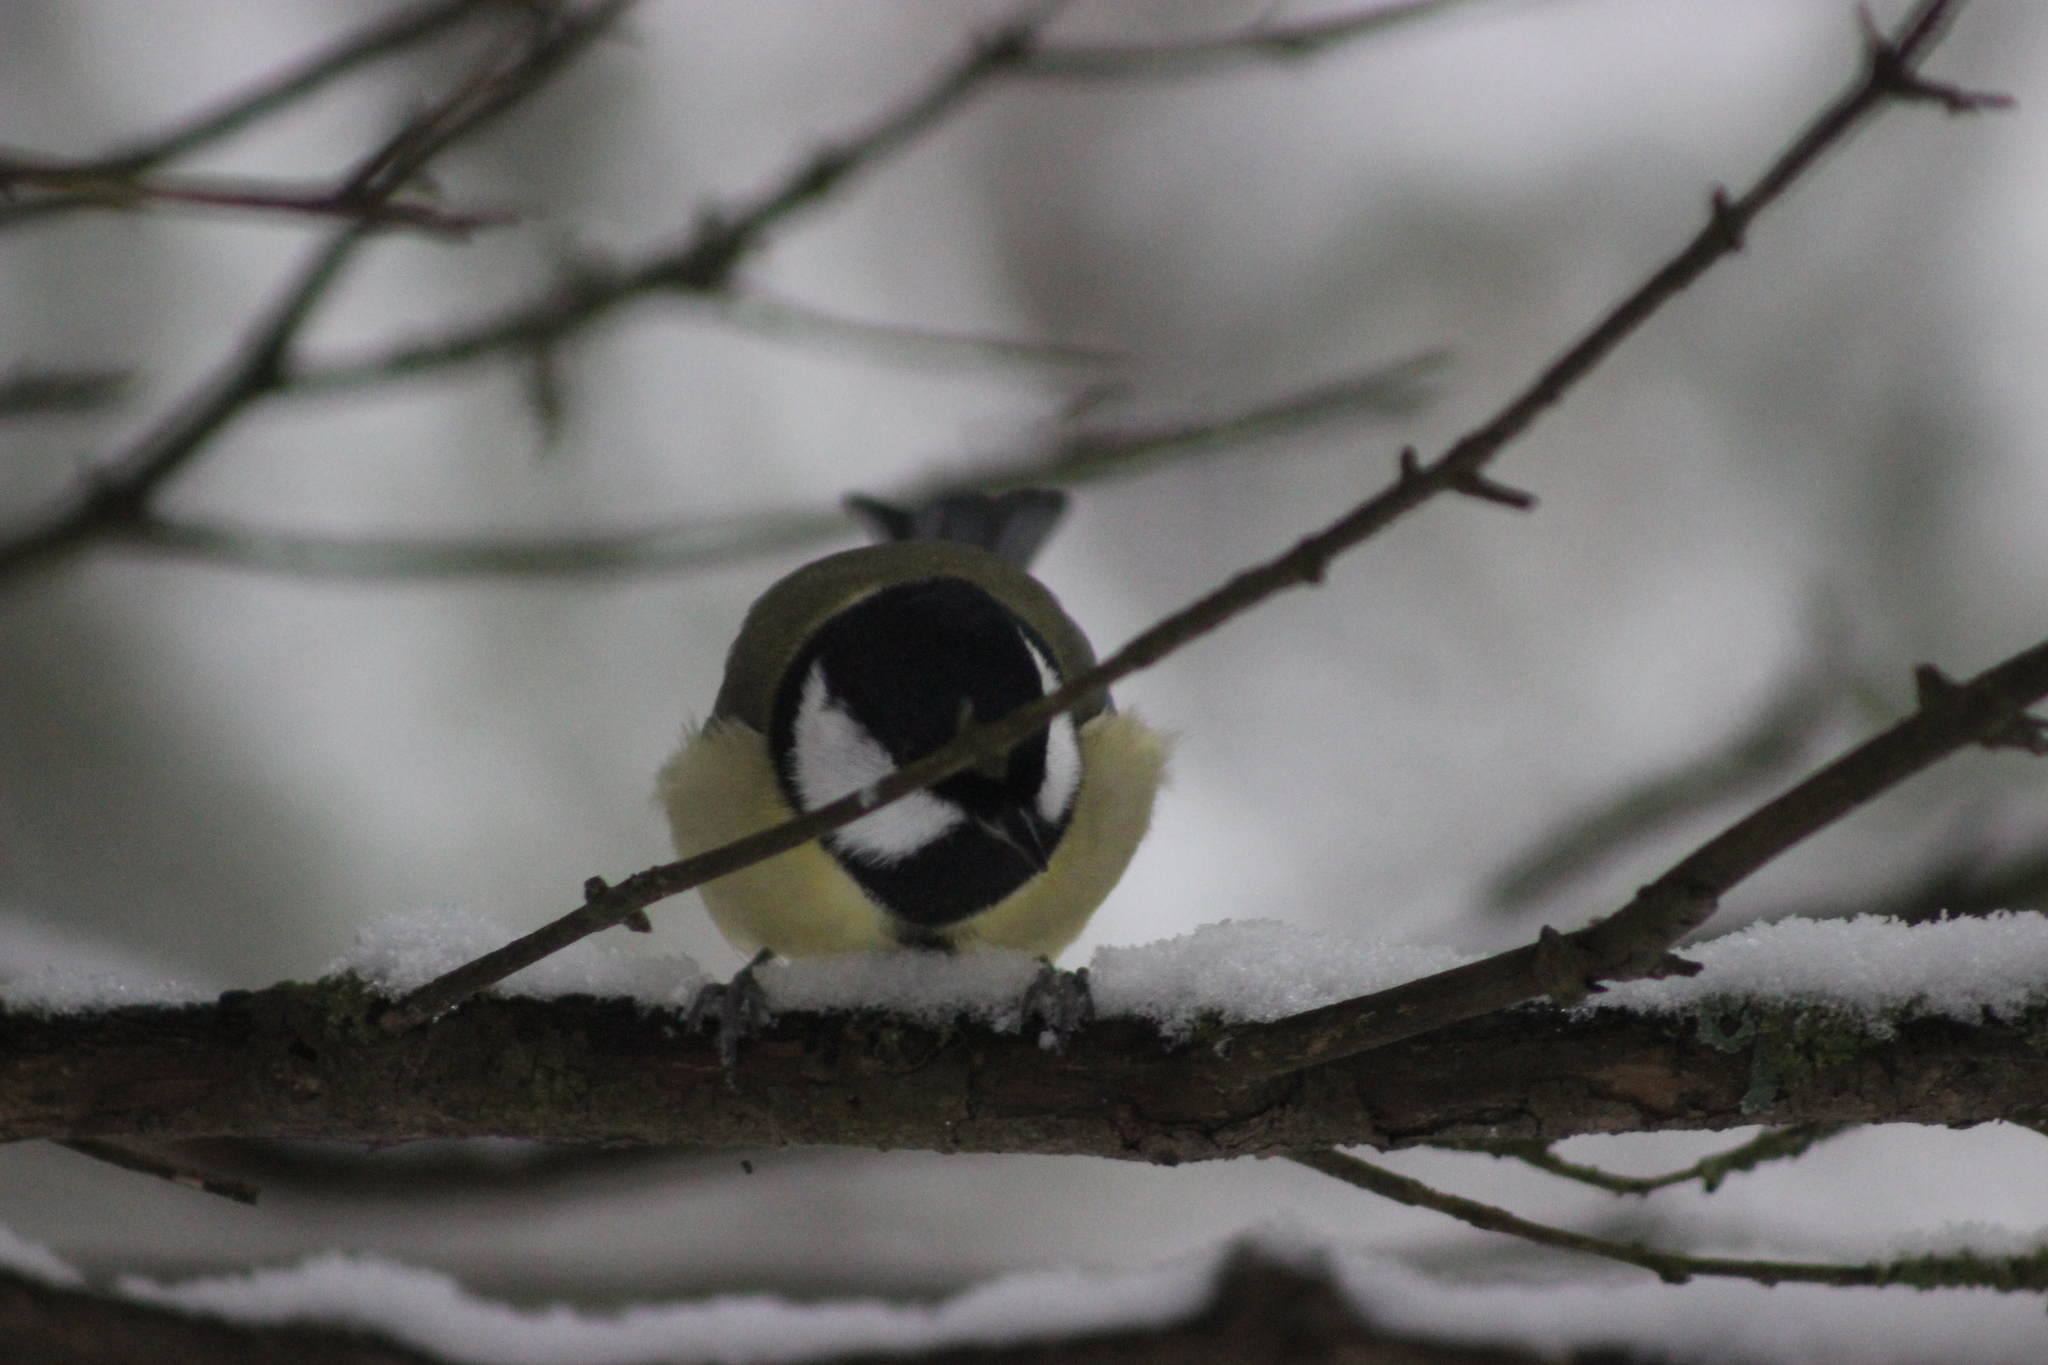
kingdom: Animalia
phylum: Chordata
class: Aves
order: Passeriformes
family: Paridae
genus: Parus
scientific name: Parus major
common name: Great tit
